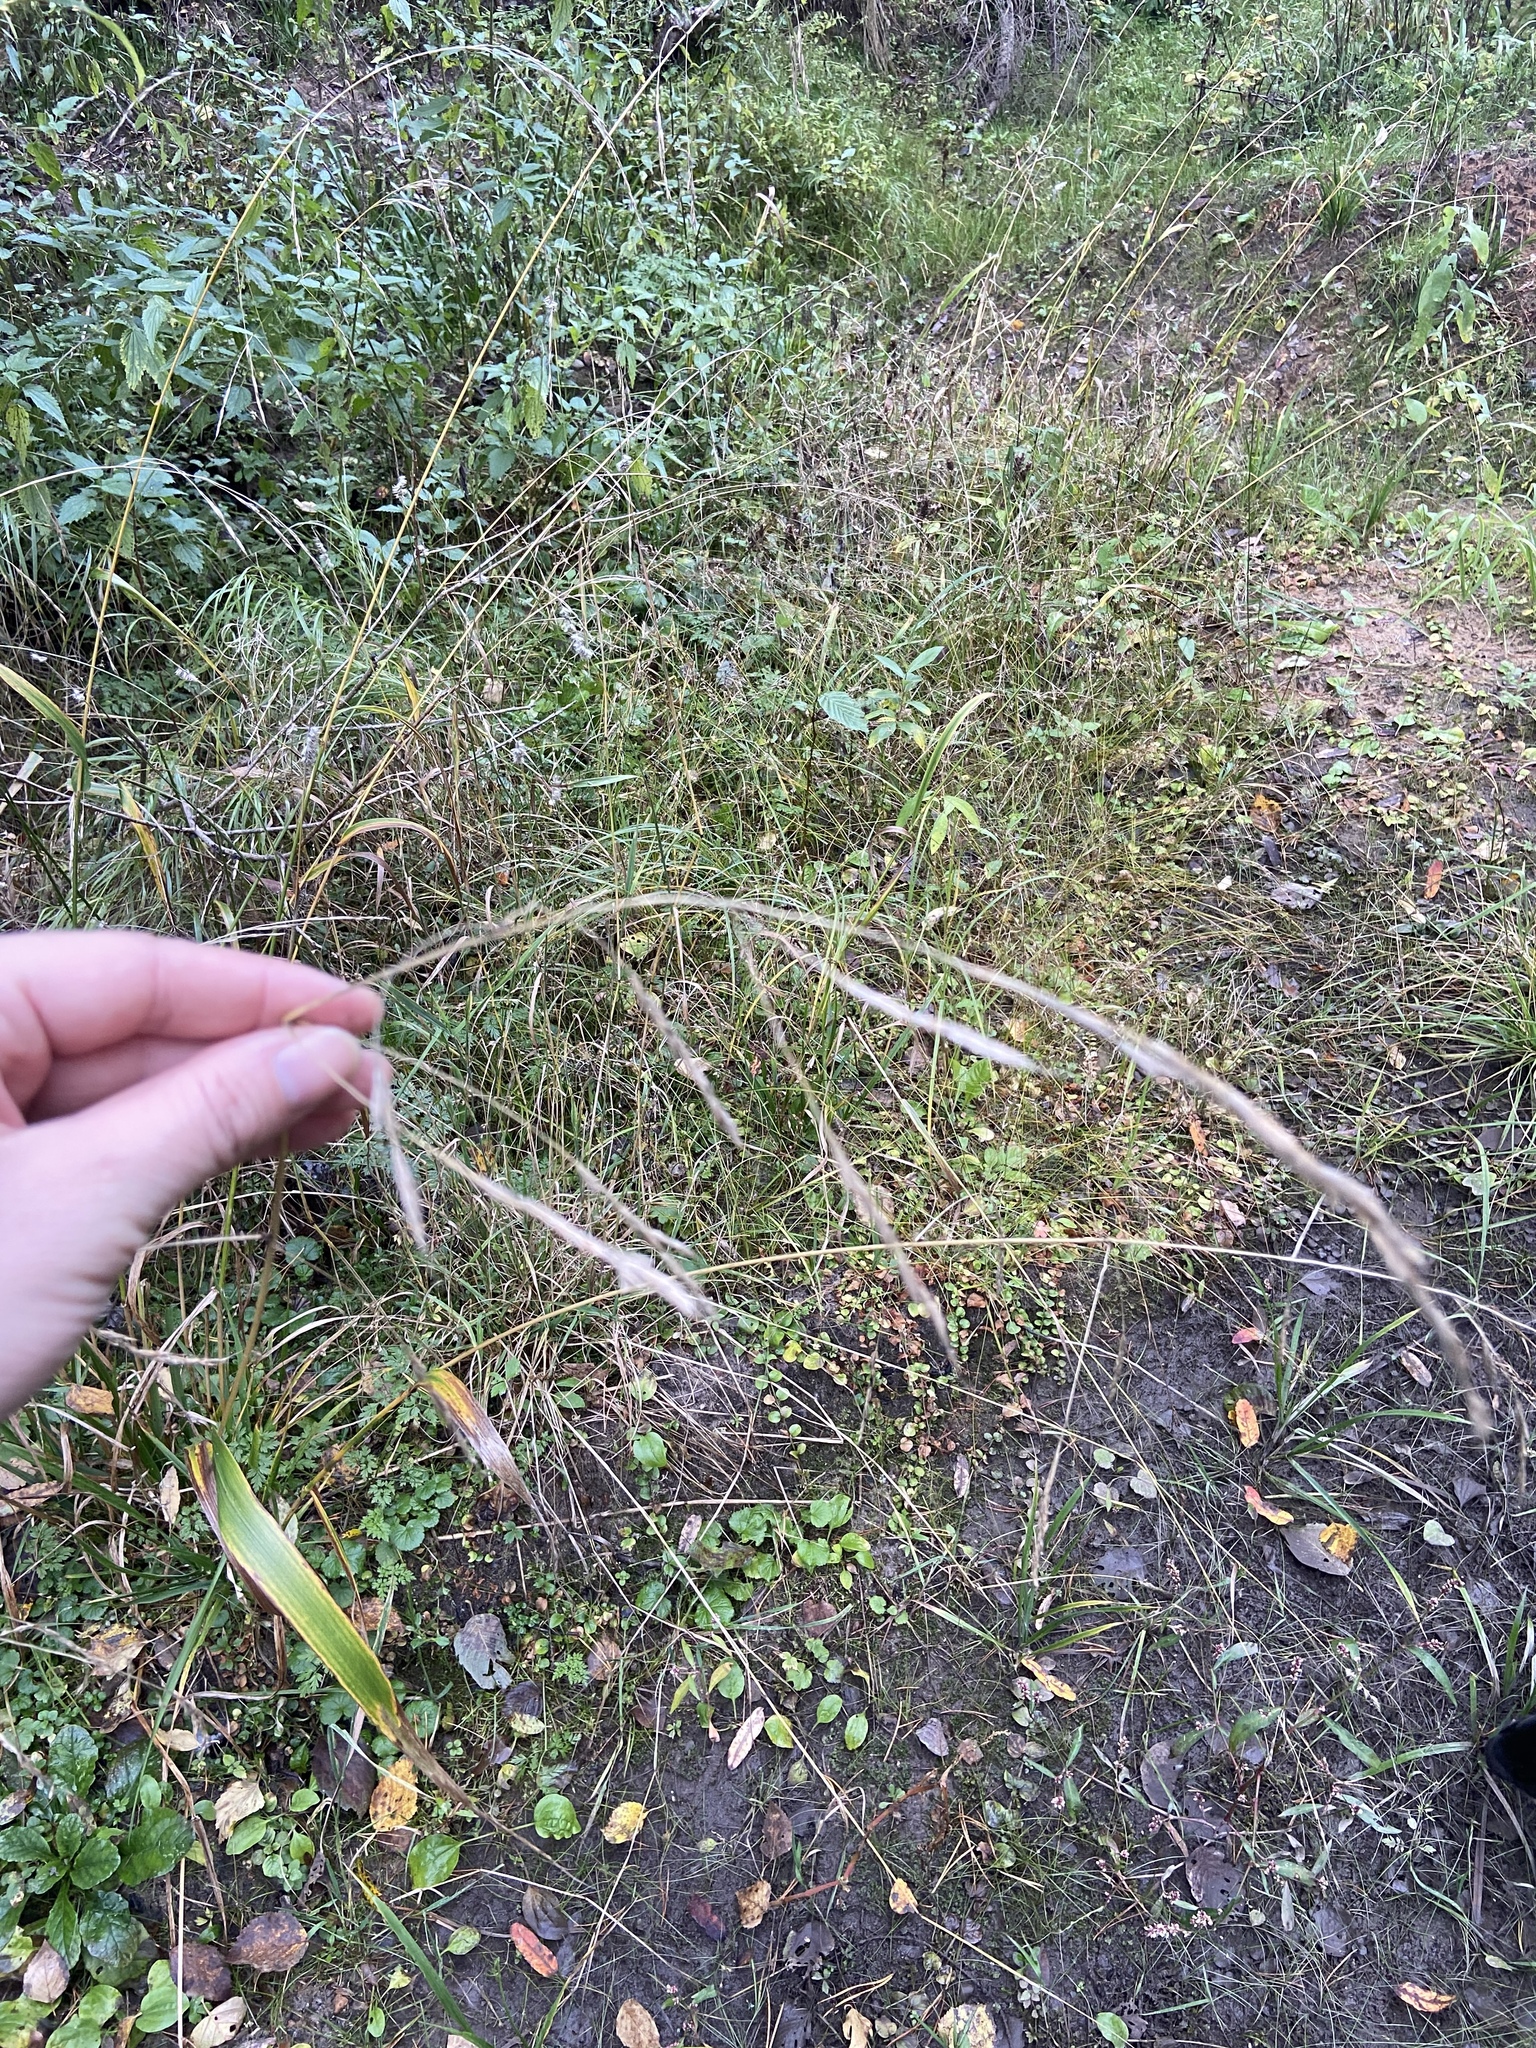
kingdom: Plantae
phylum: Tracheophyta
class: Liliopsida
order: Poales
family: Poaceae
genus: Lolium
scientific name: Lolium giganteum
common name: Giant fescue
